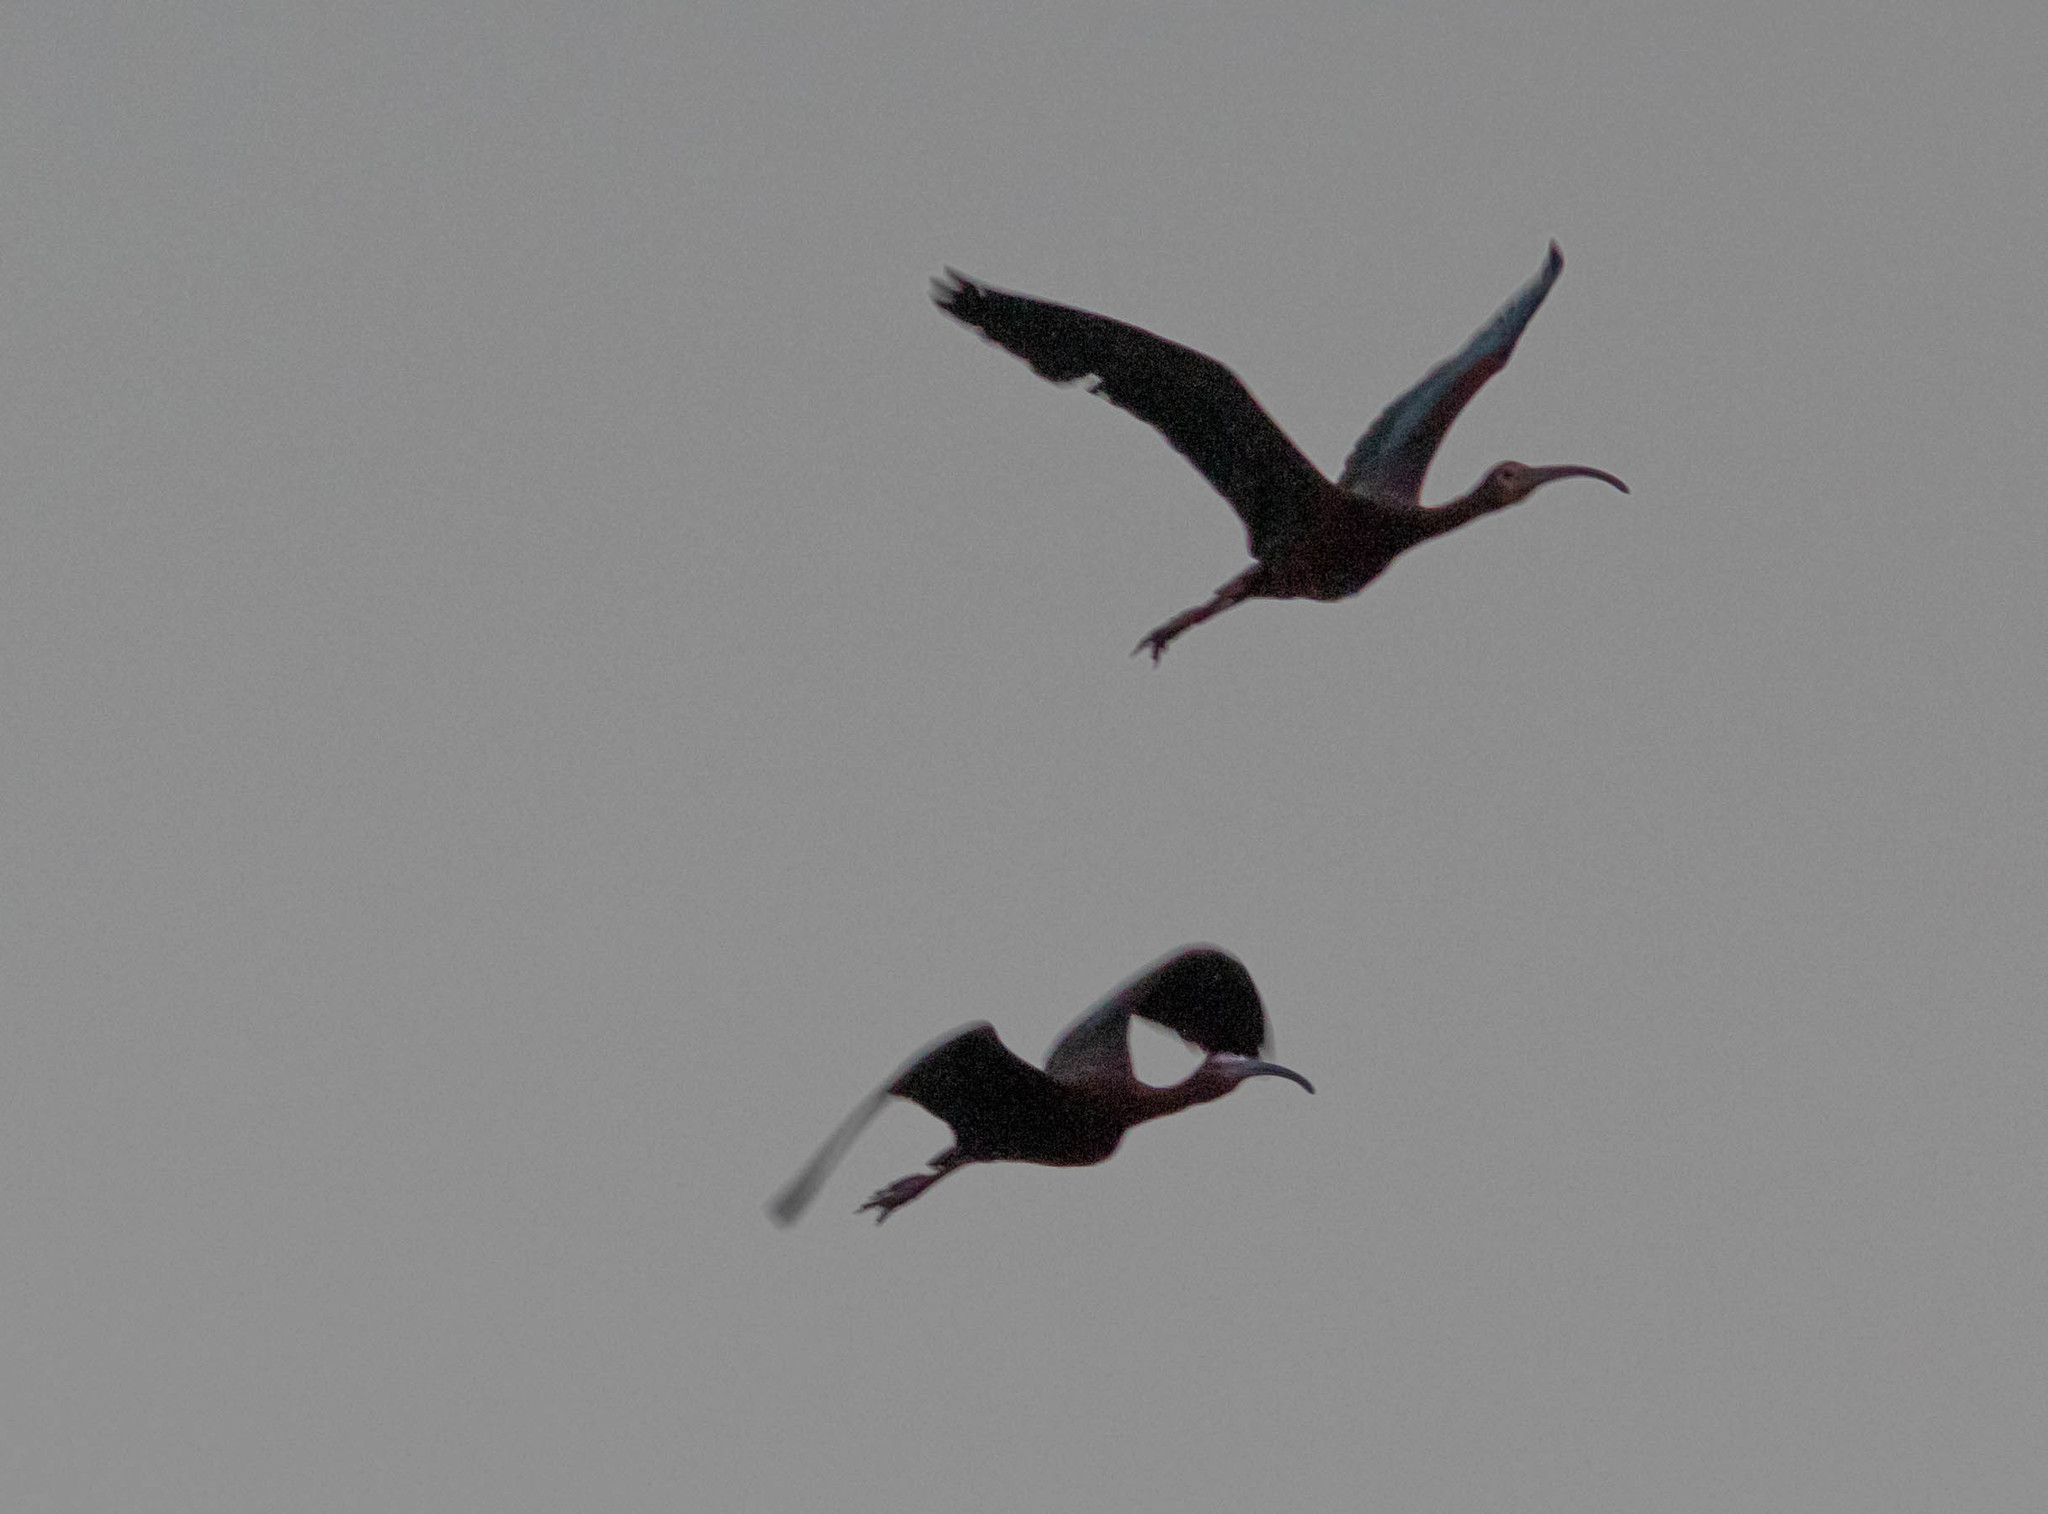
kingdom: Animalia
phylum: Chordata
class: Aves
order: Pelecaniformes
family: Threskiornithidae
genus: Plegadis
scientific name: Plegadis chihi
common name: White-faced ibis
